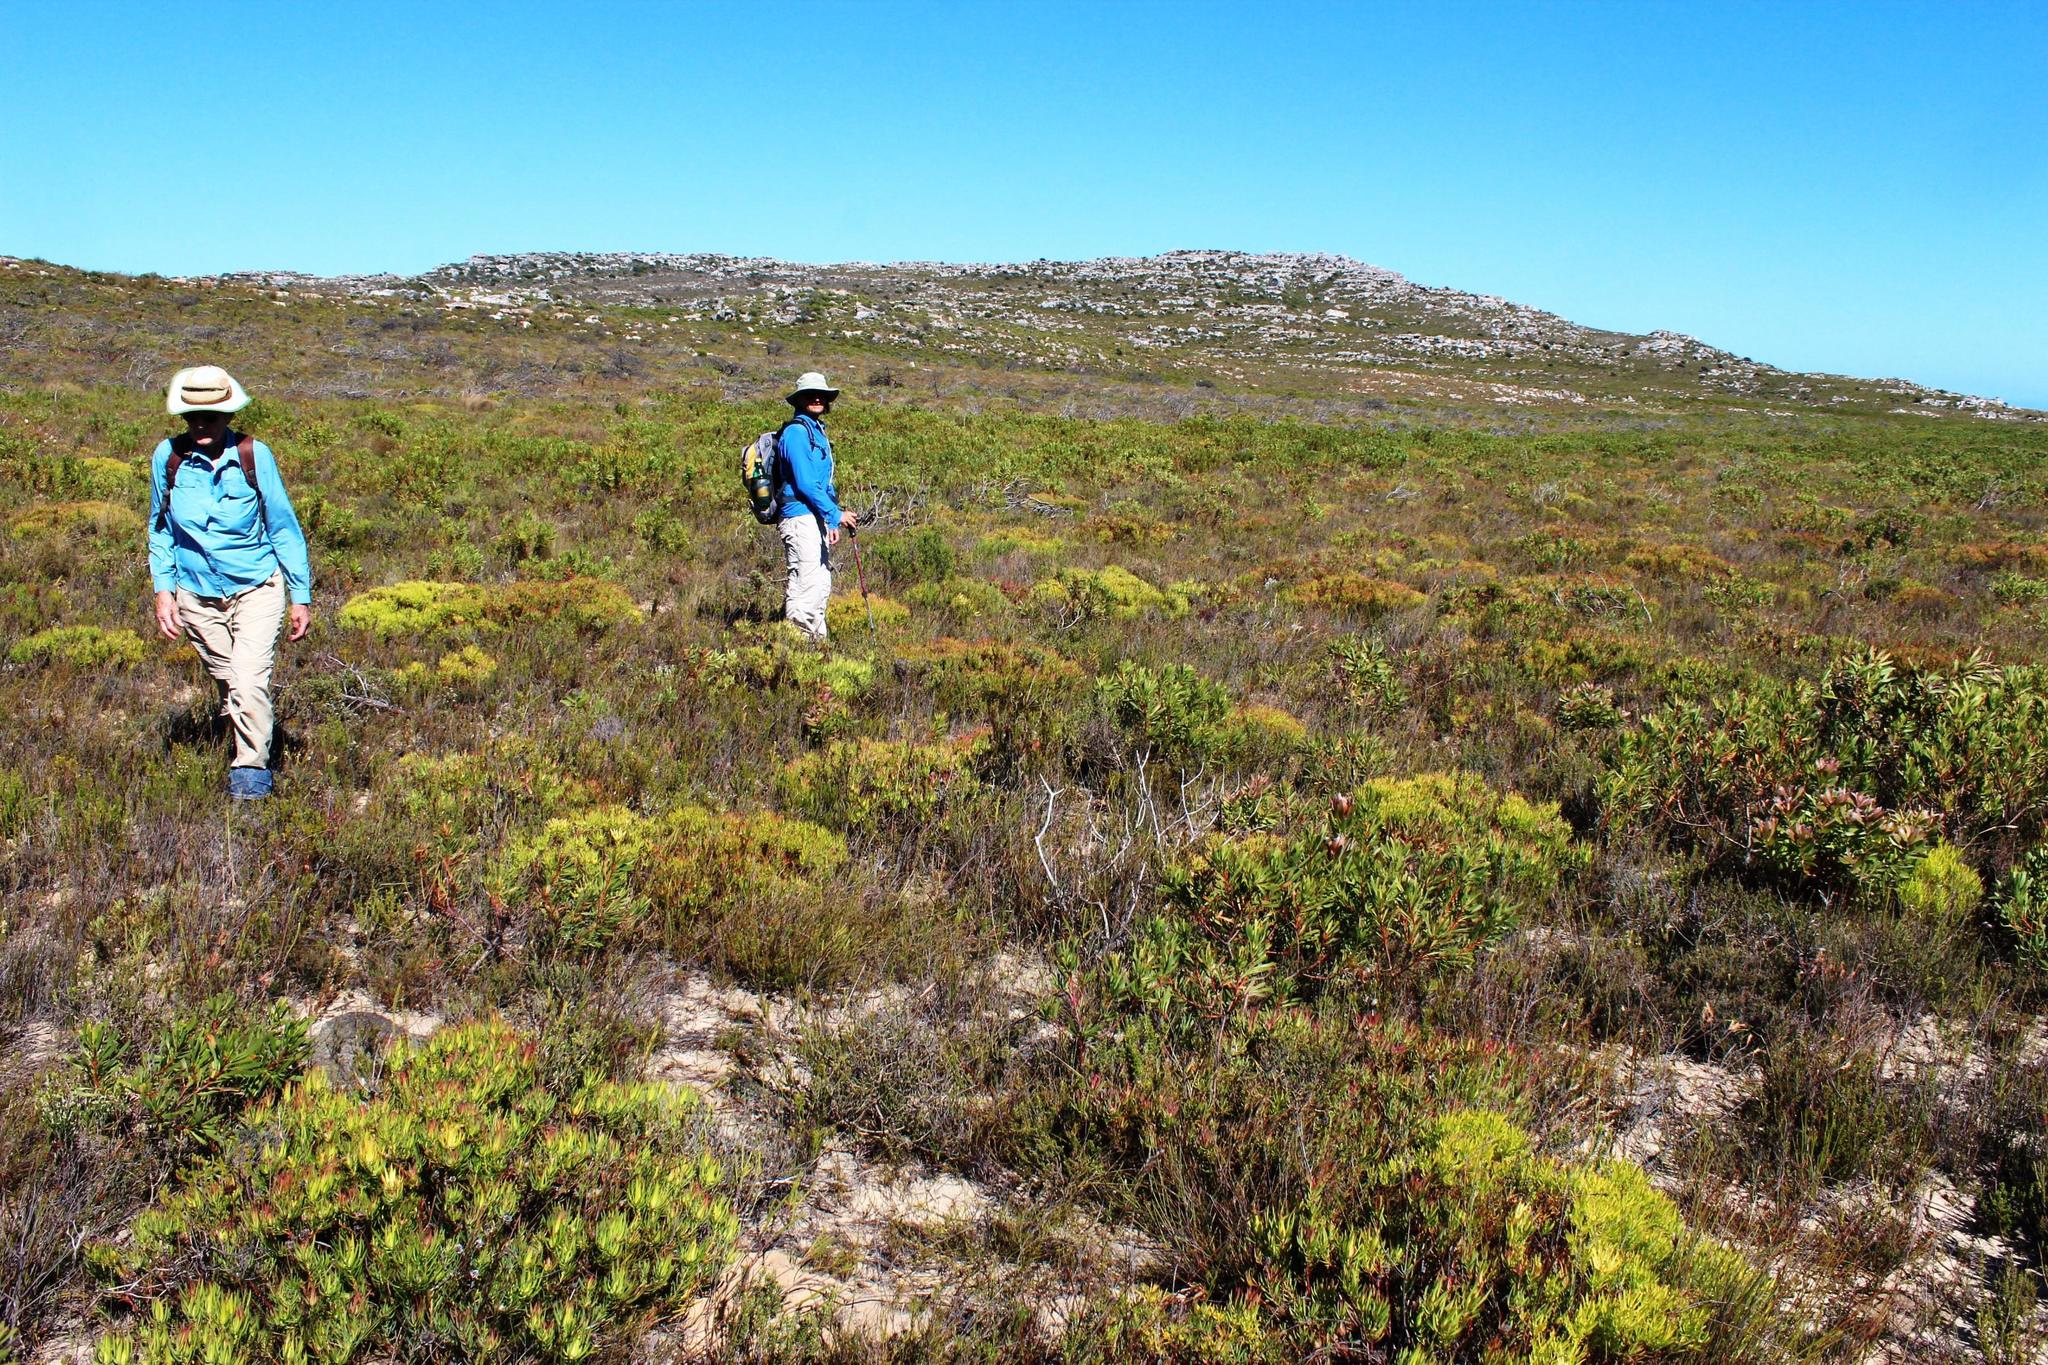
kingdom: Plantae
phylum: Tracheophyta
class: Magnoliopsida
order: Proteales
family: Proteaceae
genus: Leucadendron
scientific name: Leucadendron salignum
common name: Common sunshine conebush
